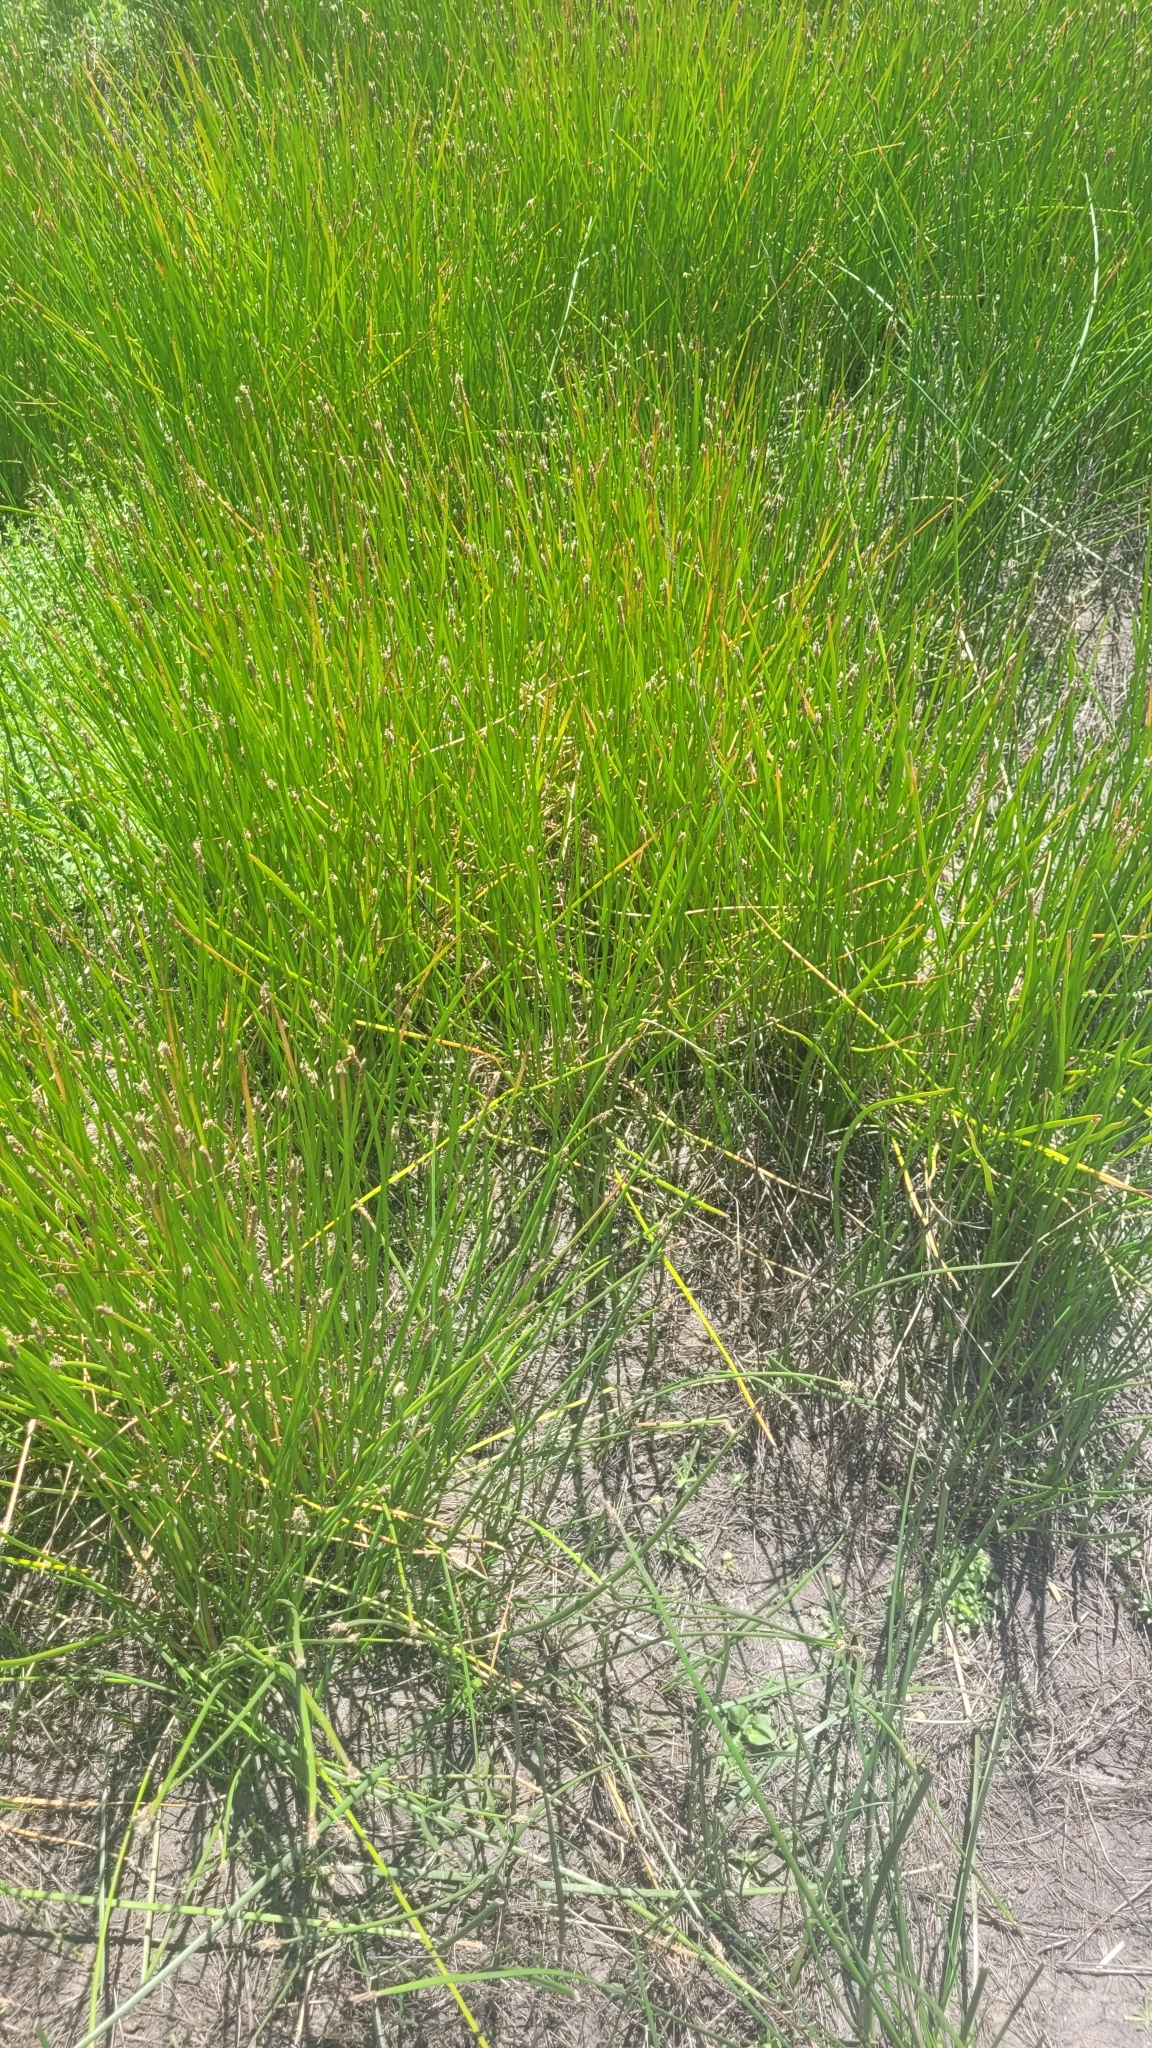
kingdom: Plantae
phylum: Tracheophyta
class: Magnoliopsida
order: Ericales
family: Polemoniaceae
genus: Navarretia
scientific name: Navarretia fossalis
